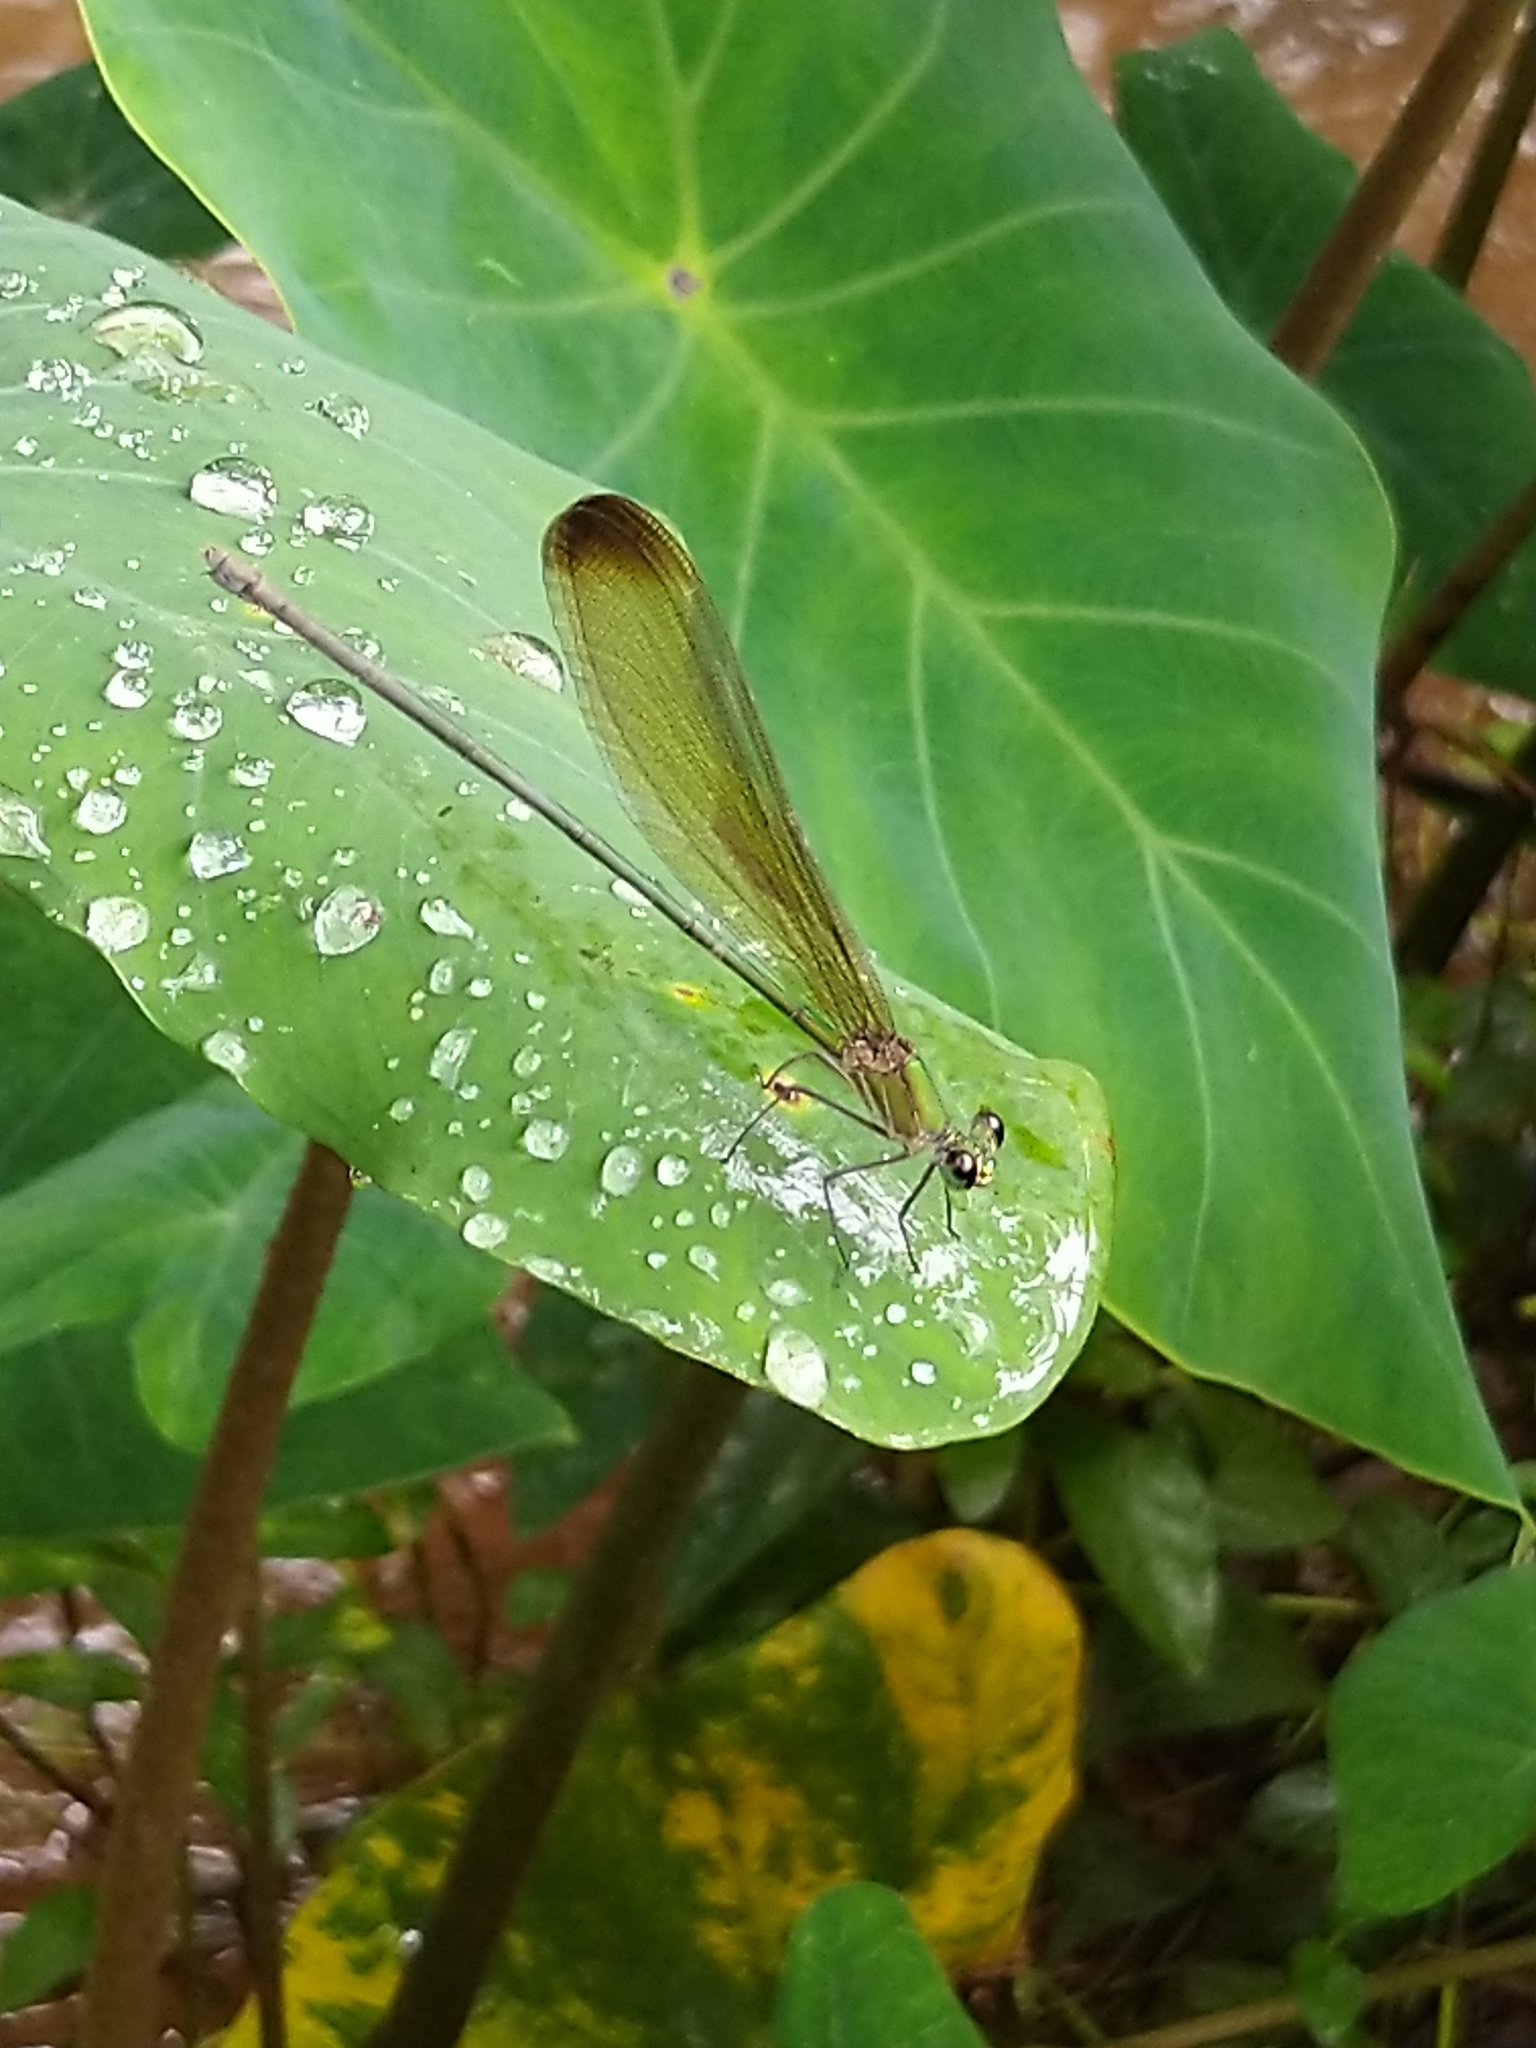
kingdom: Animalia
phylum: Arthropoda
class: Insecta
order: Odonata
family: Calopterygidae
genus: Vestalis
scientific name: Vestalis apicalis
